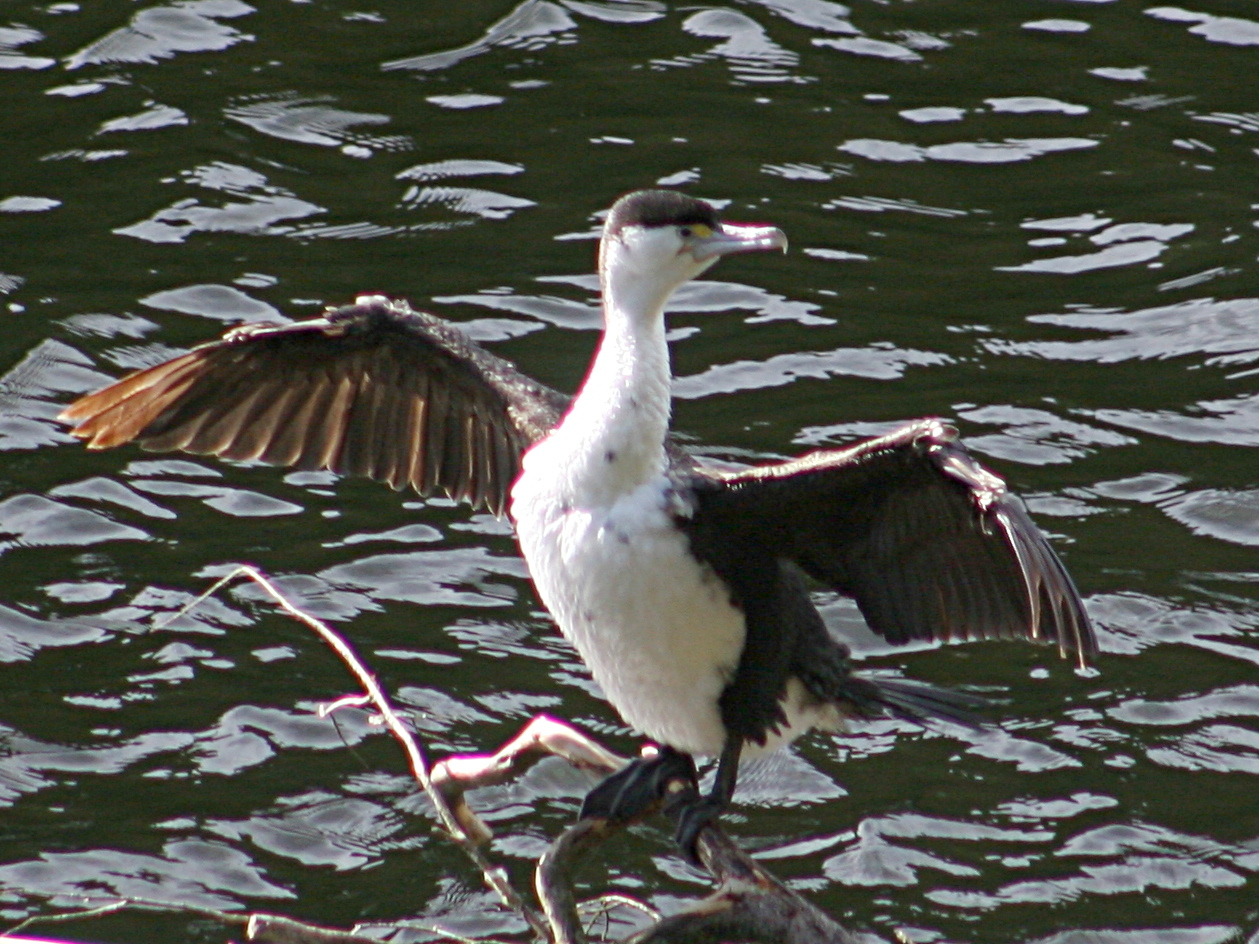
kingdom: Animalia
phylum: Chordata
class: Aves
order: Suliformes
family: Phalacrocoracidae
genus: Phalacrocorax
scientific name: Phalacrocorax varius
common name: Pied cormorant
